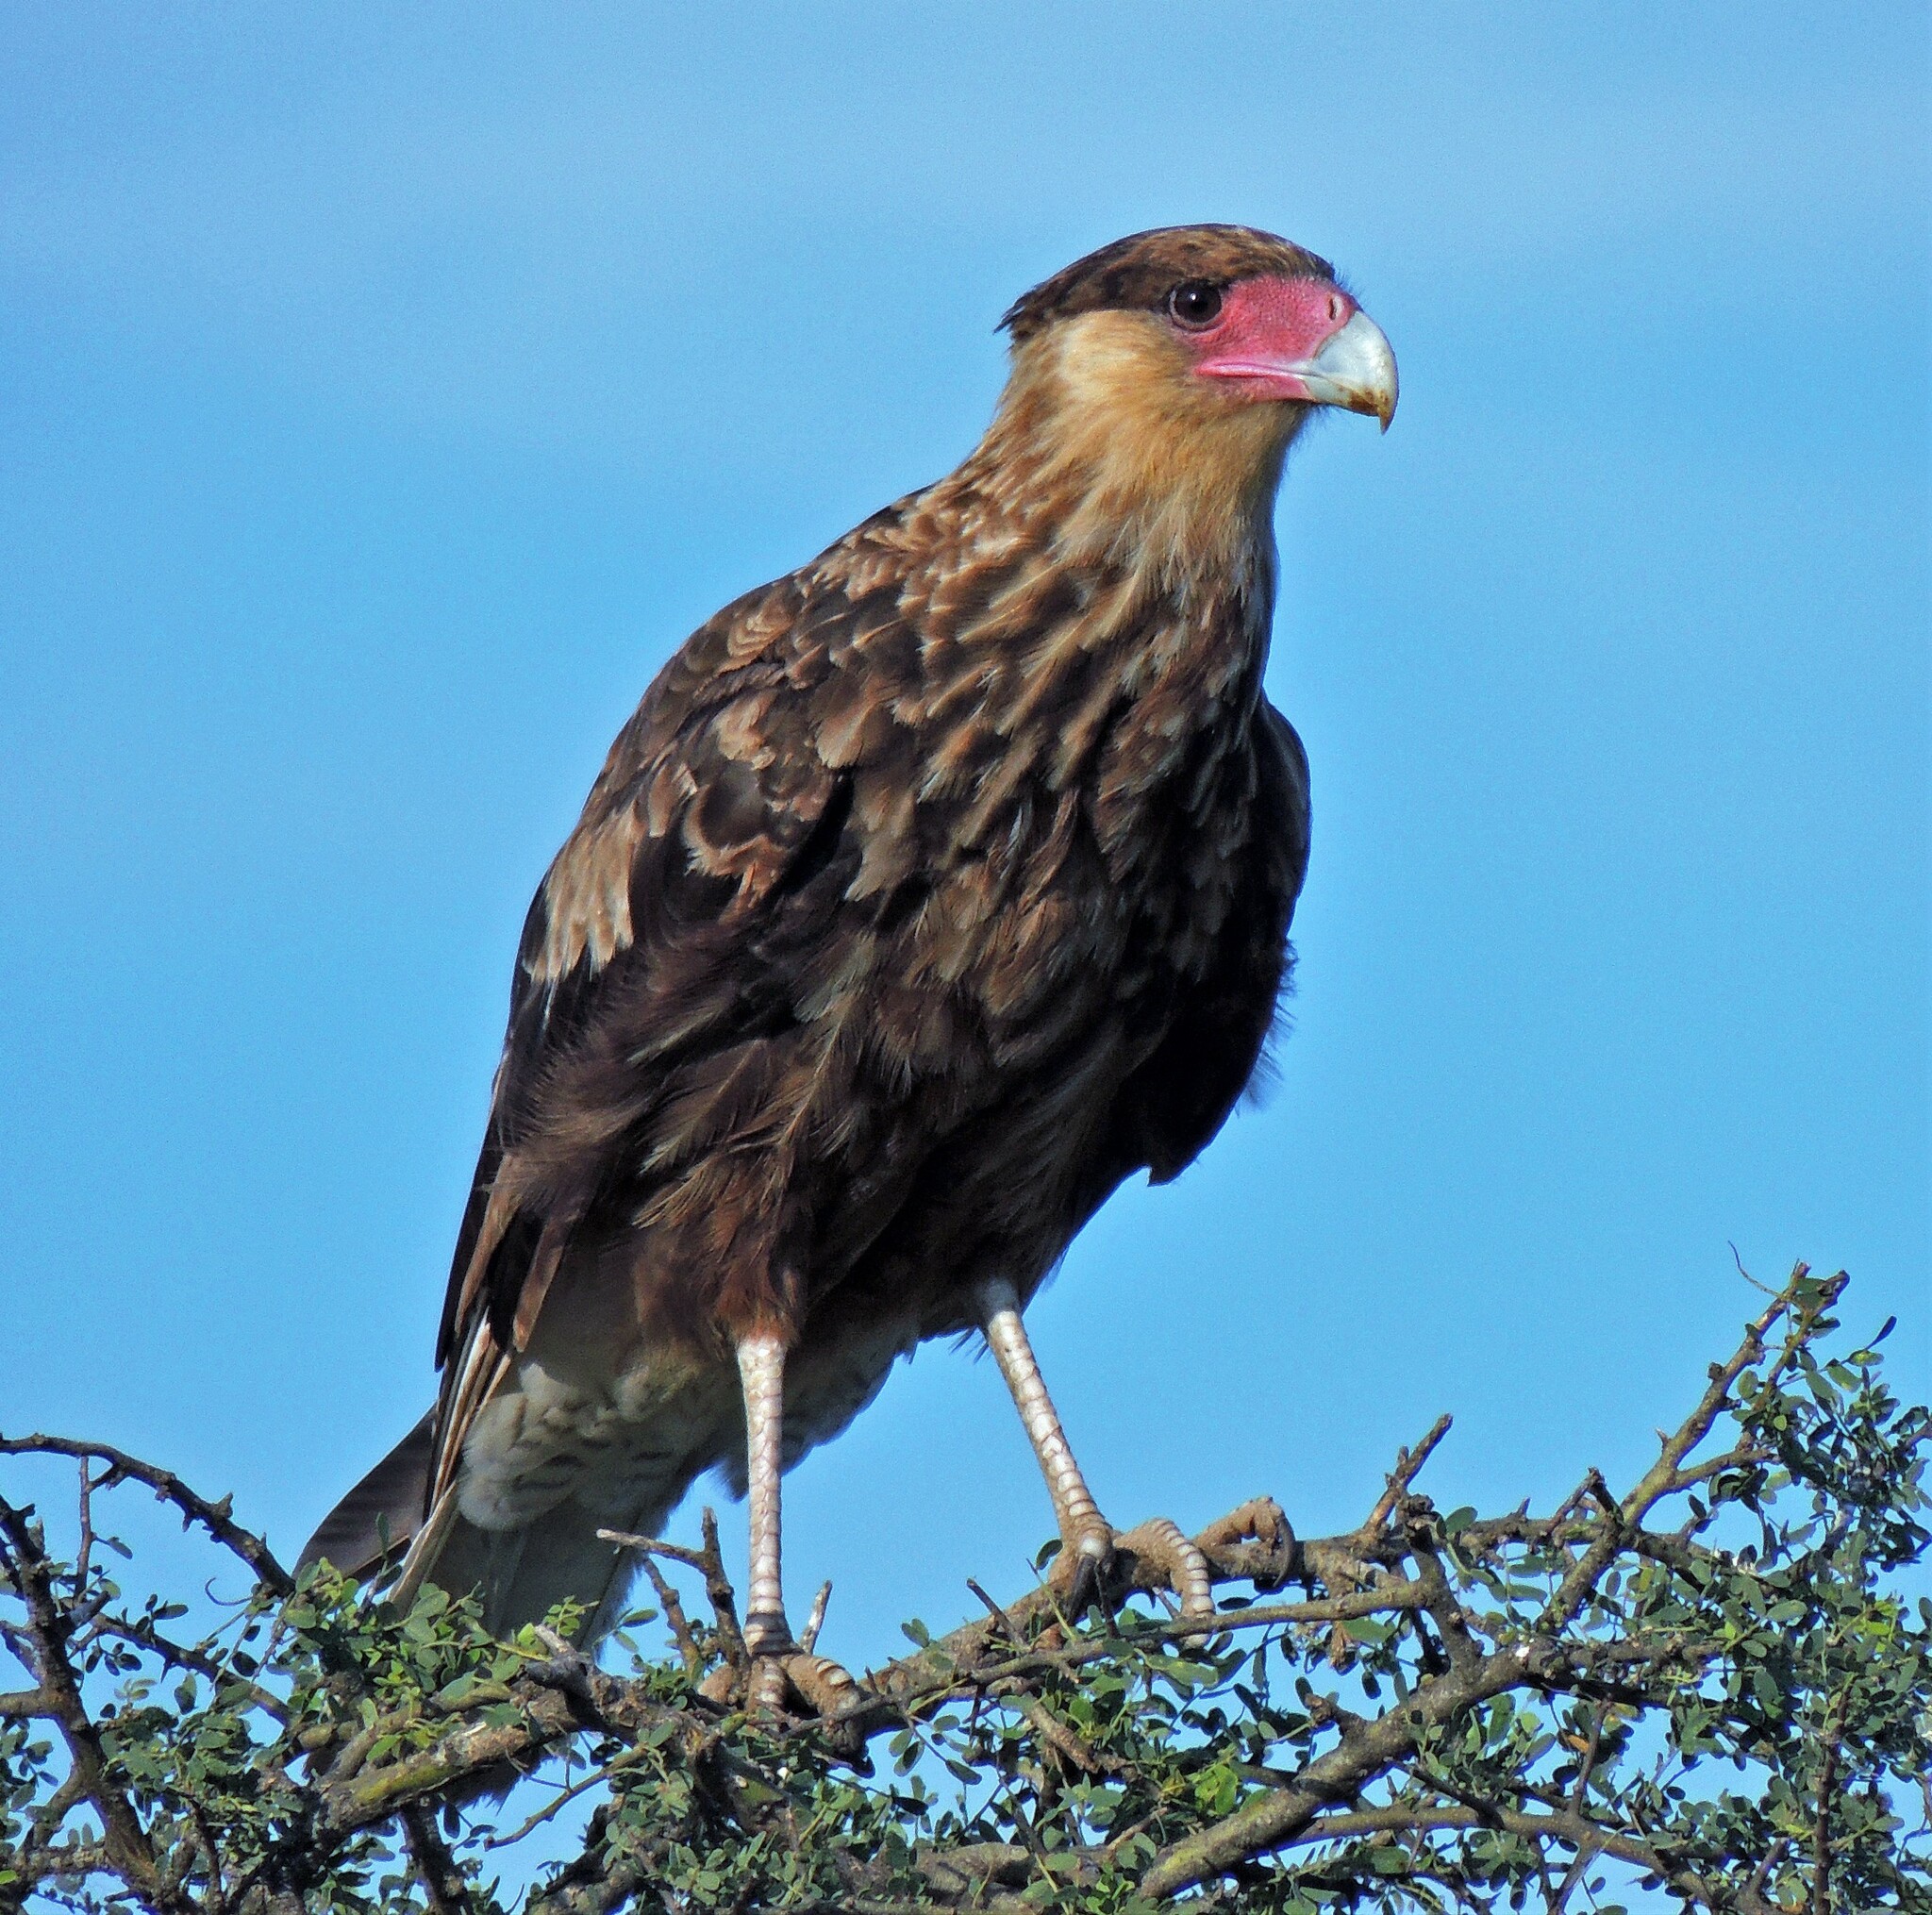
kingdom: Animalia
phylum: Chordata
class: Aves
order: Falconiformes
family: Falconidae
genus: Caracara
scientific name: Caracara plancus
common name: Southern caracara
